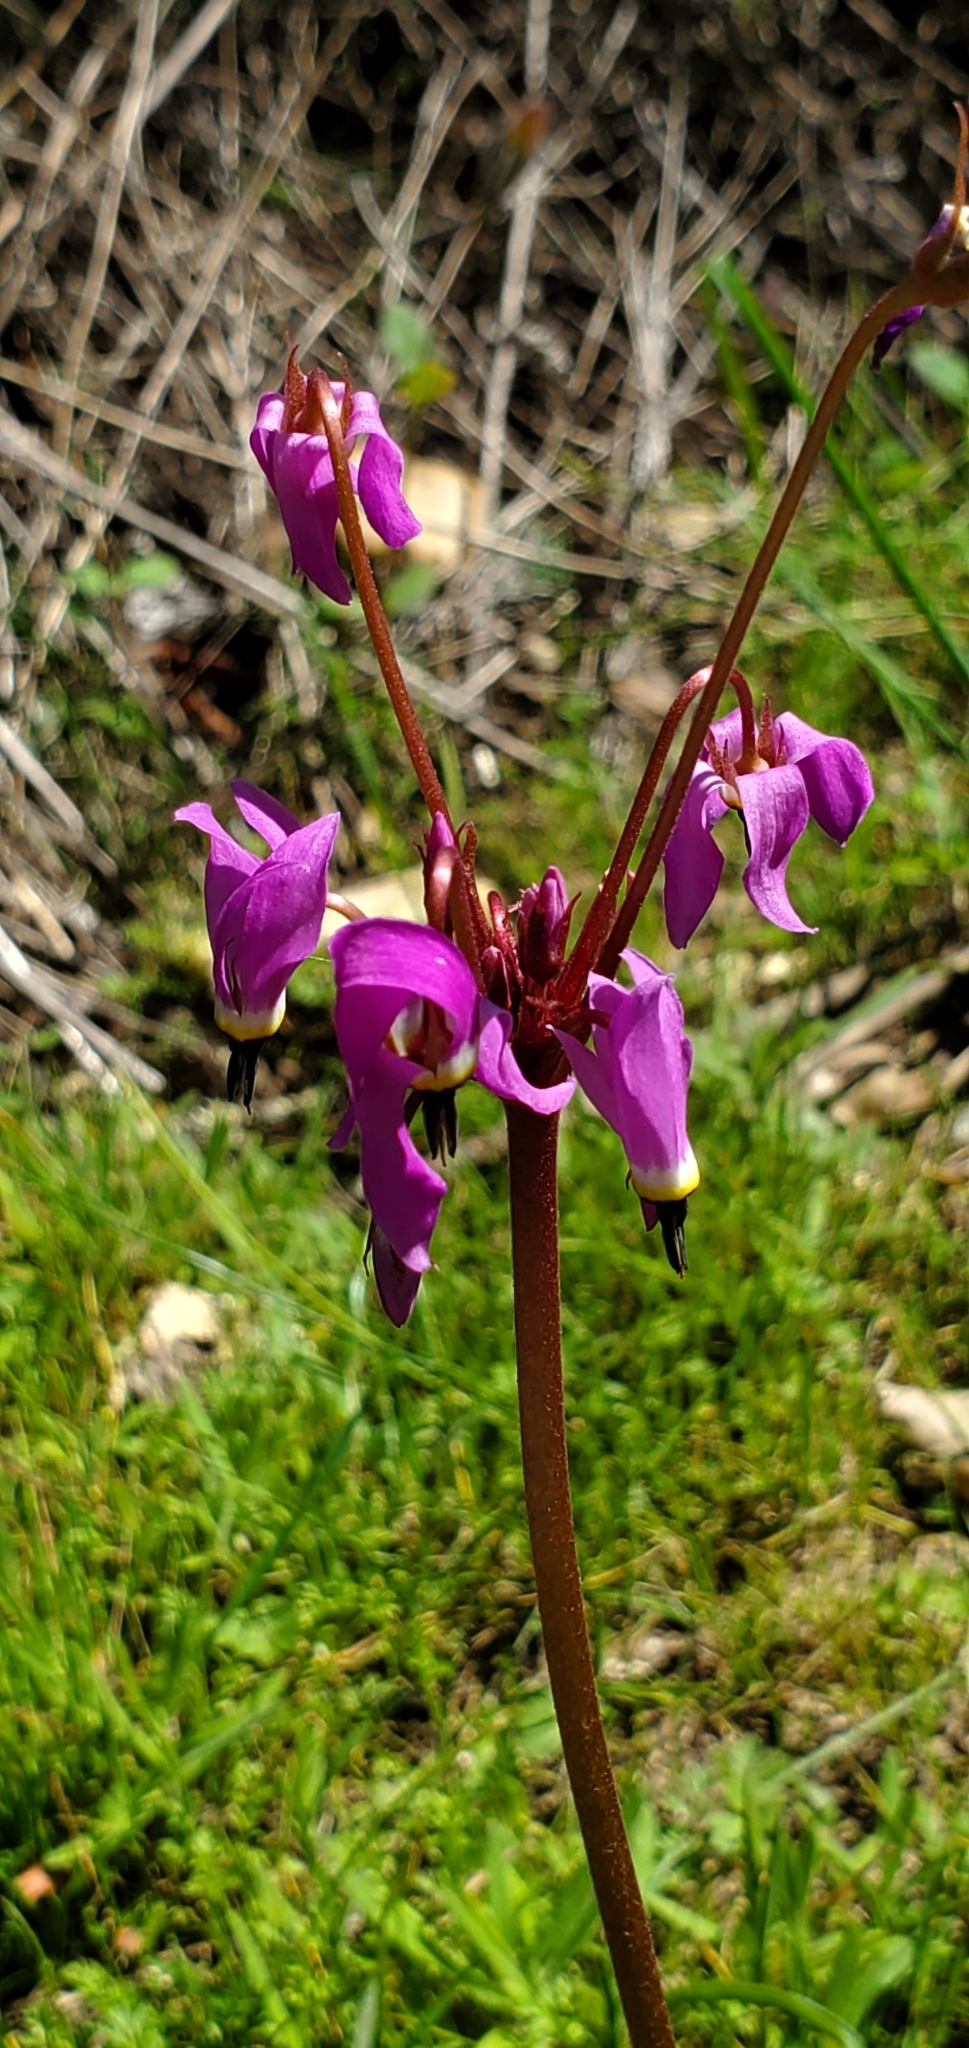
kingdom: Plantae
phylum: Tracheophyta
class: Magnoliopsida
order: Ericales
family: Primulaceae
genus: Dodecatheon
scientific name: Dodecatheon hendersonii
